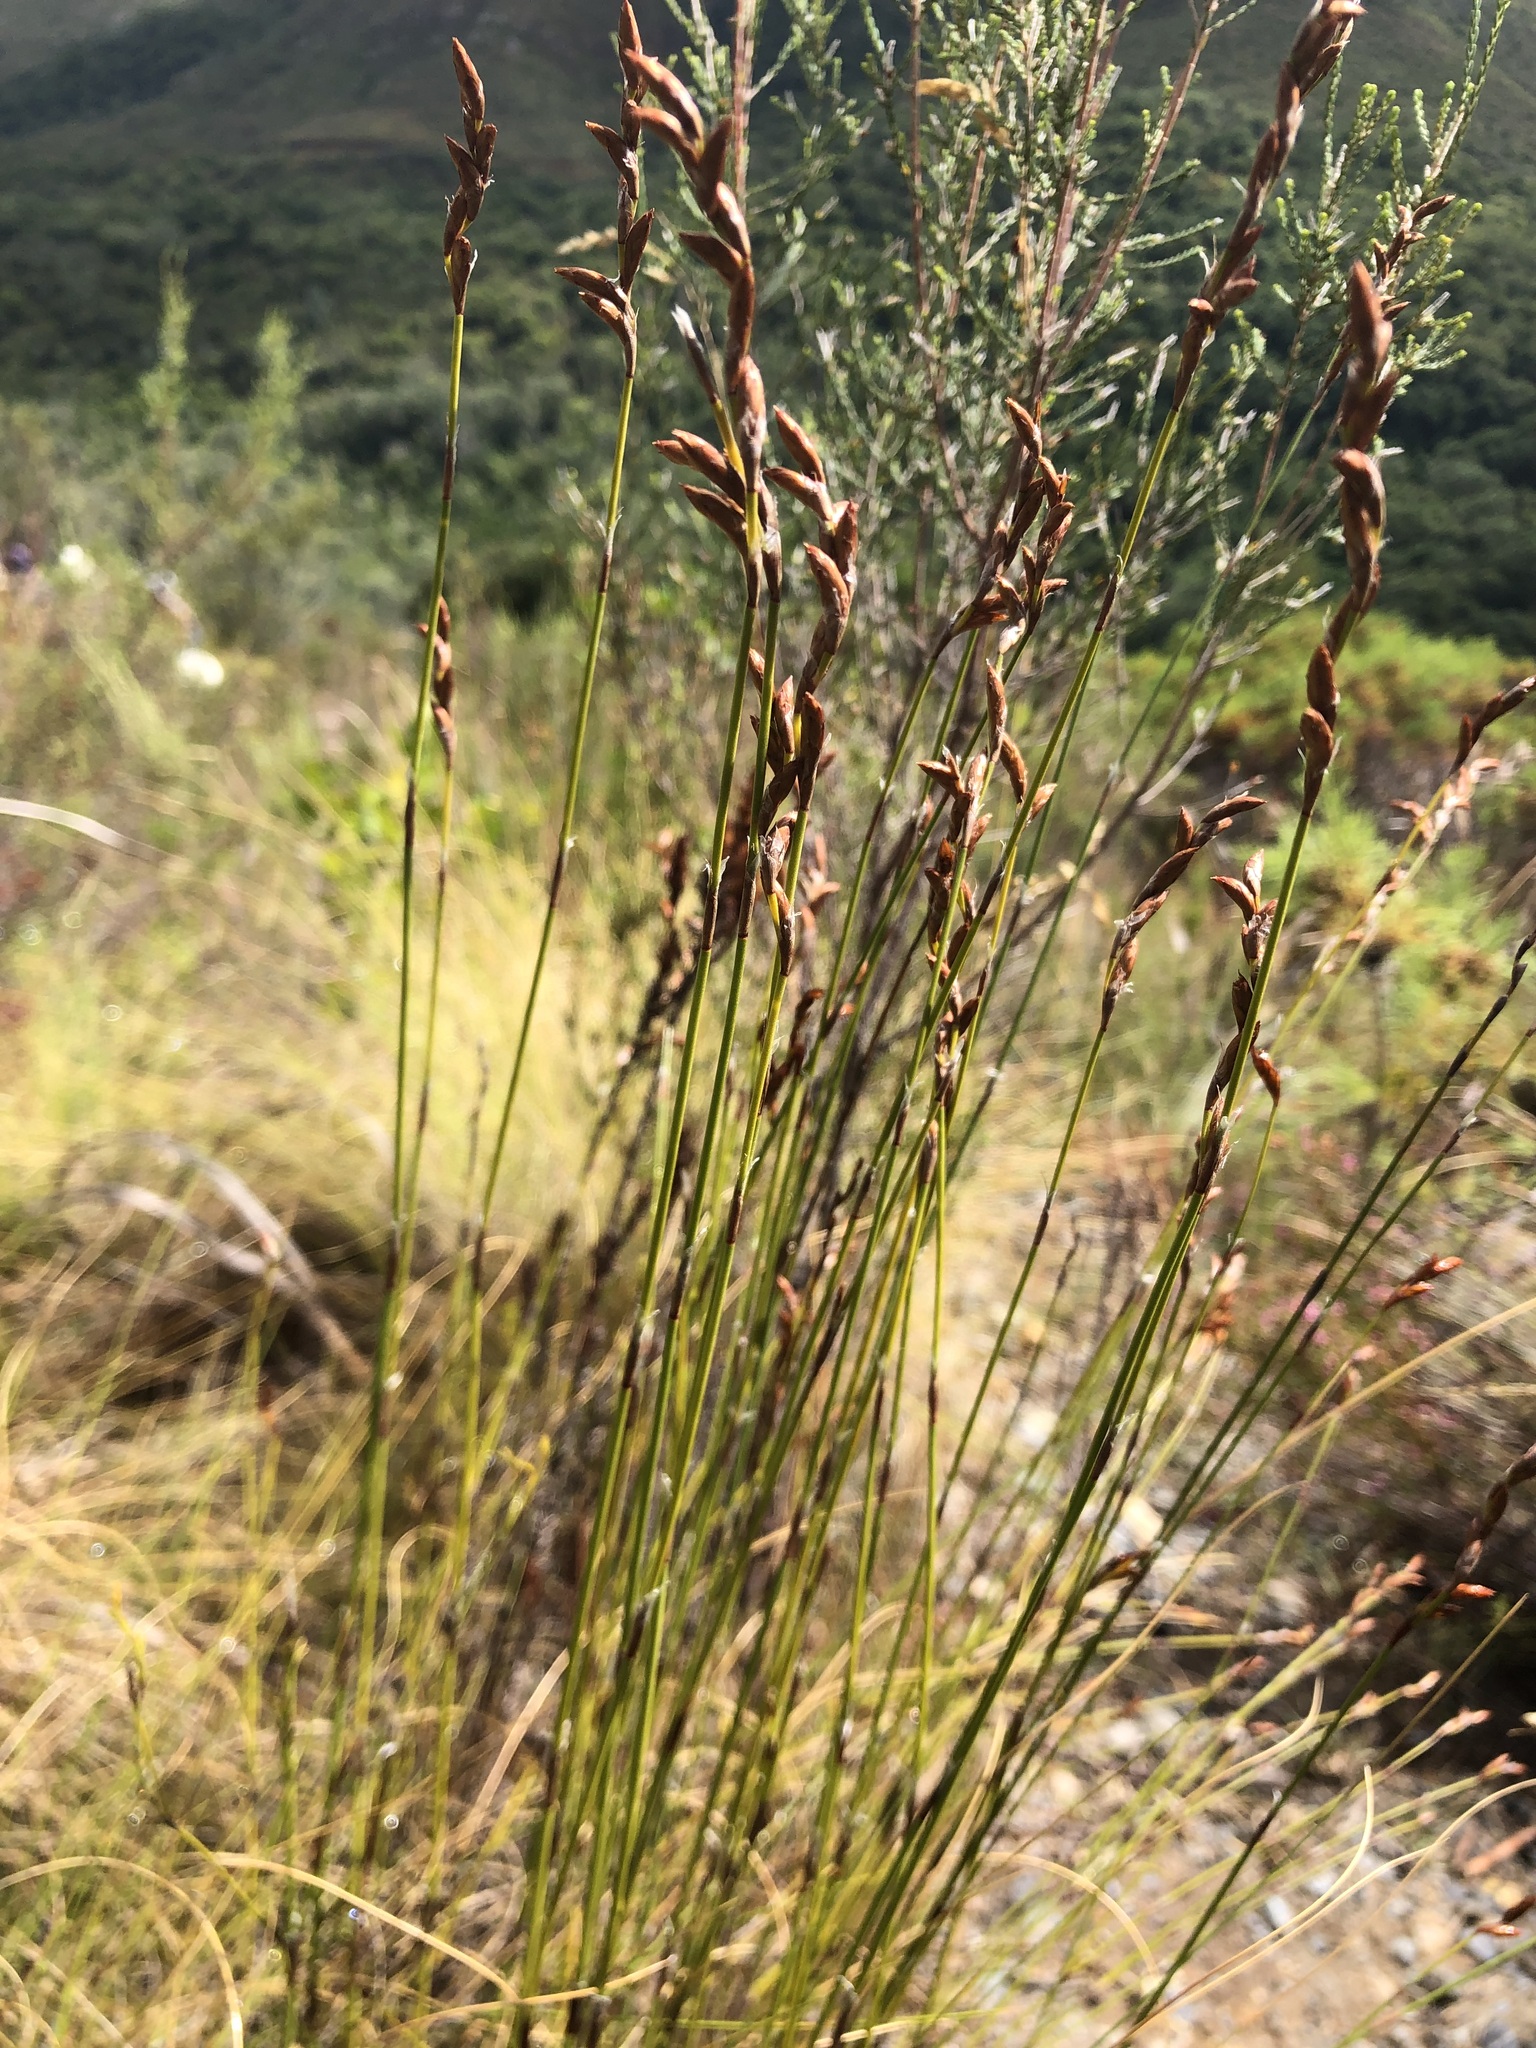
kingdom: Plantae
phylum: Tracheophyta
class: Liliopsida
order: Poales
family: Restionaceae
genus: Restio
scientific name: Restio triticeus
